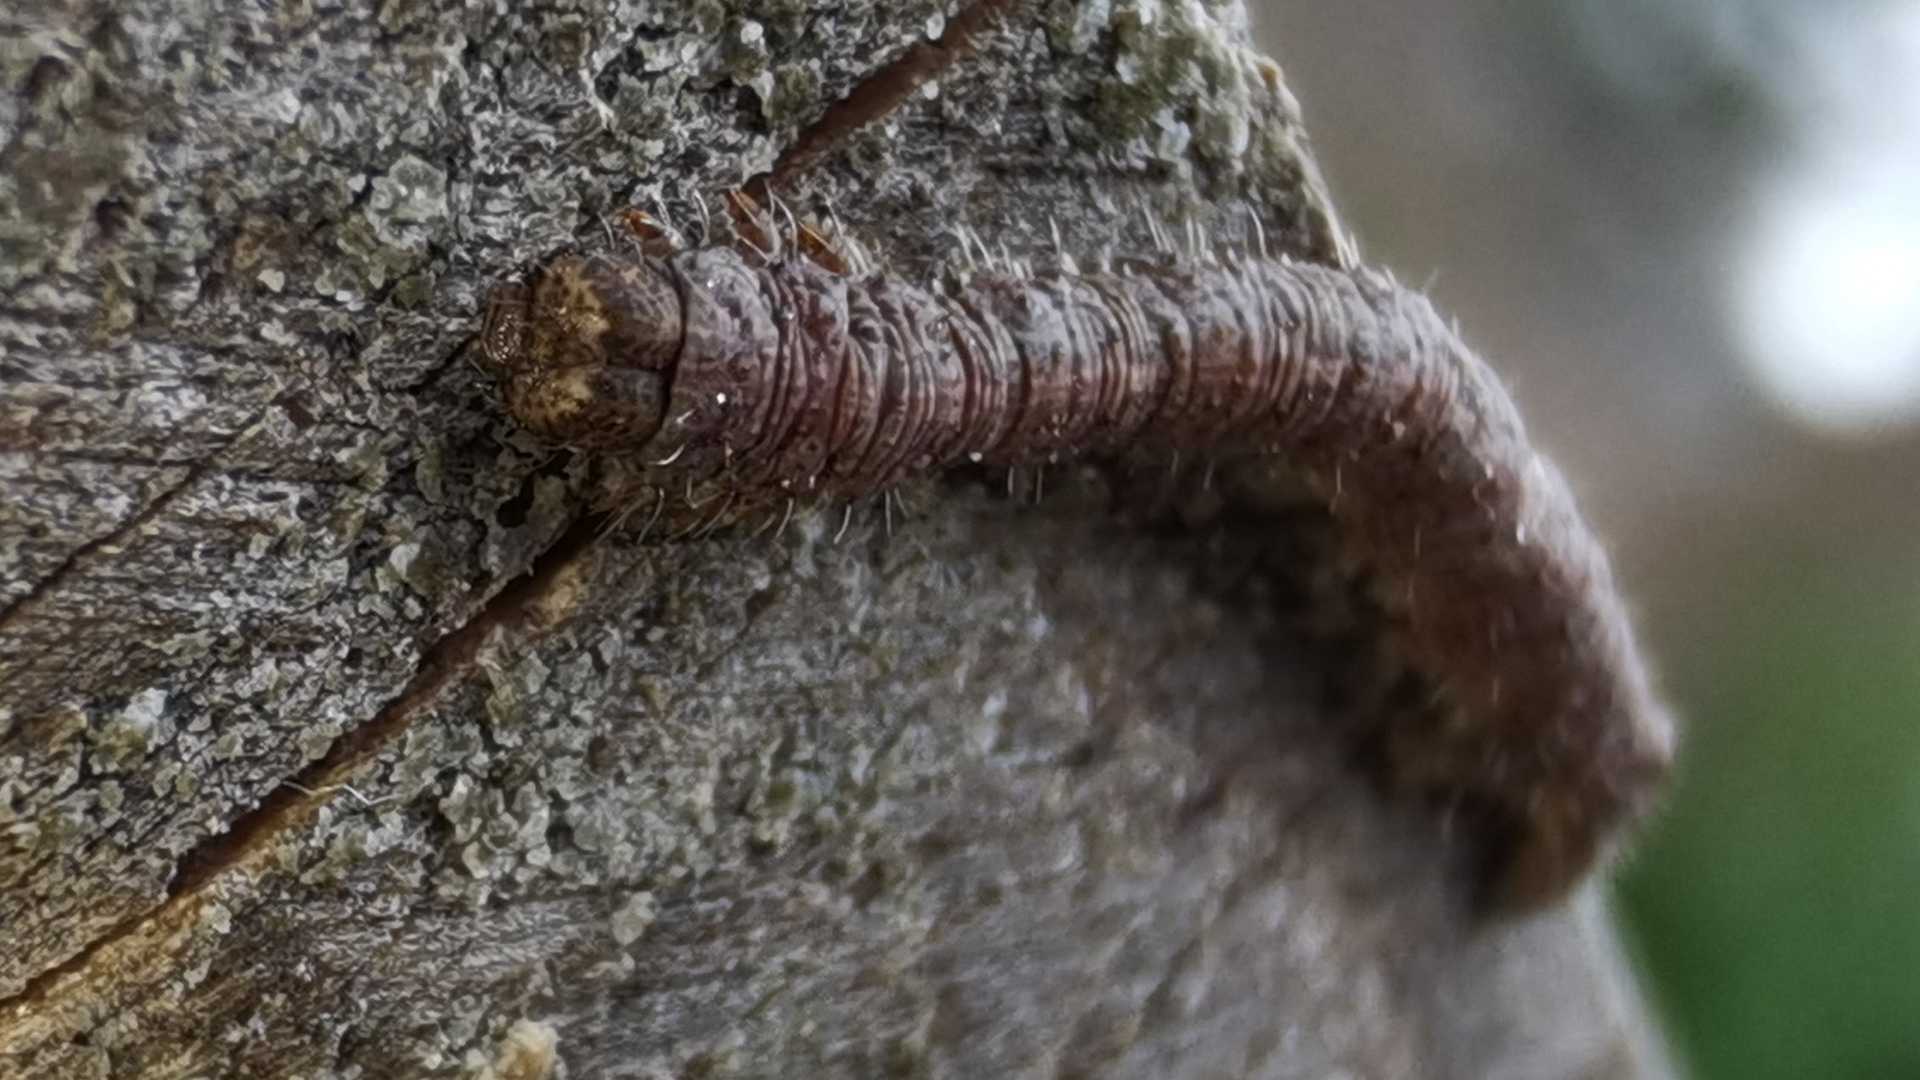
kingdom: Animalia
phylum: Arthropoda
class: Insecta
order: Lepidoptera
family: Geometridae
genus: Campaea
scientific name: Campaea margaritaria
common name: Light emerald
